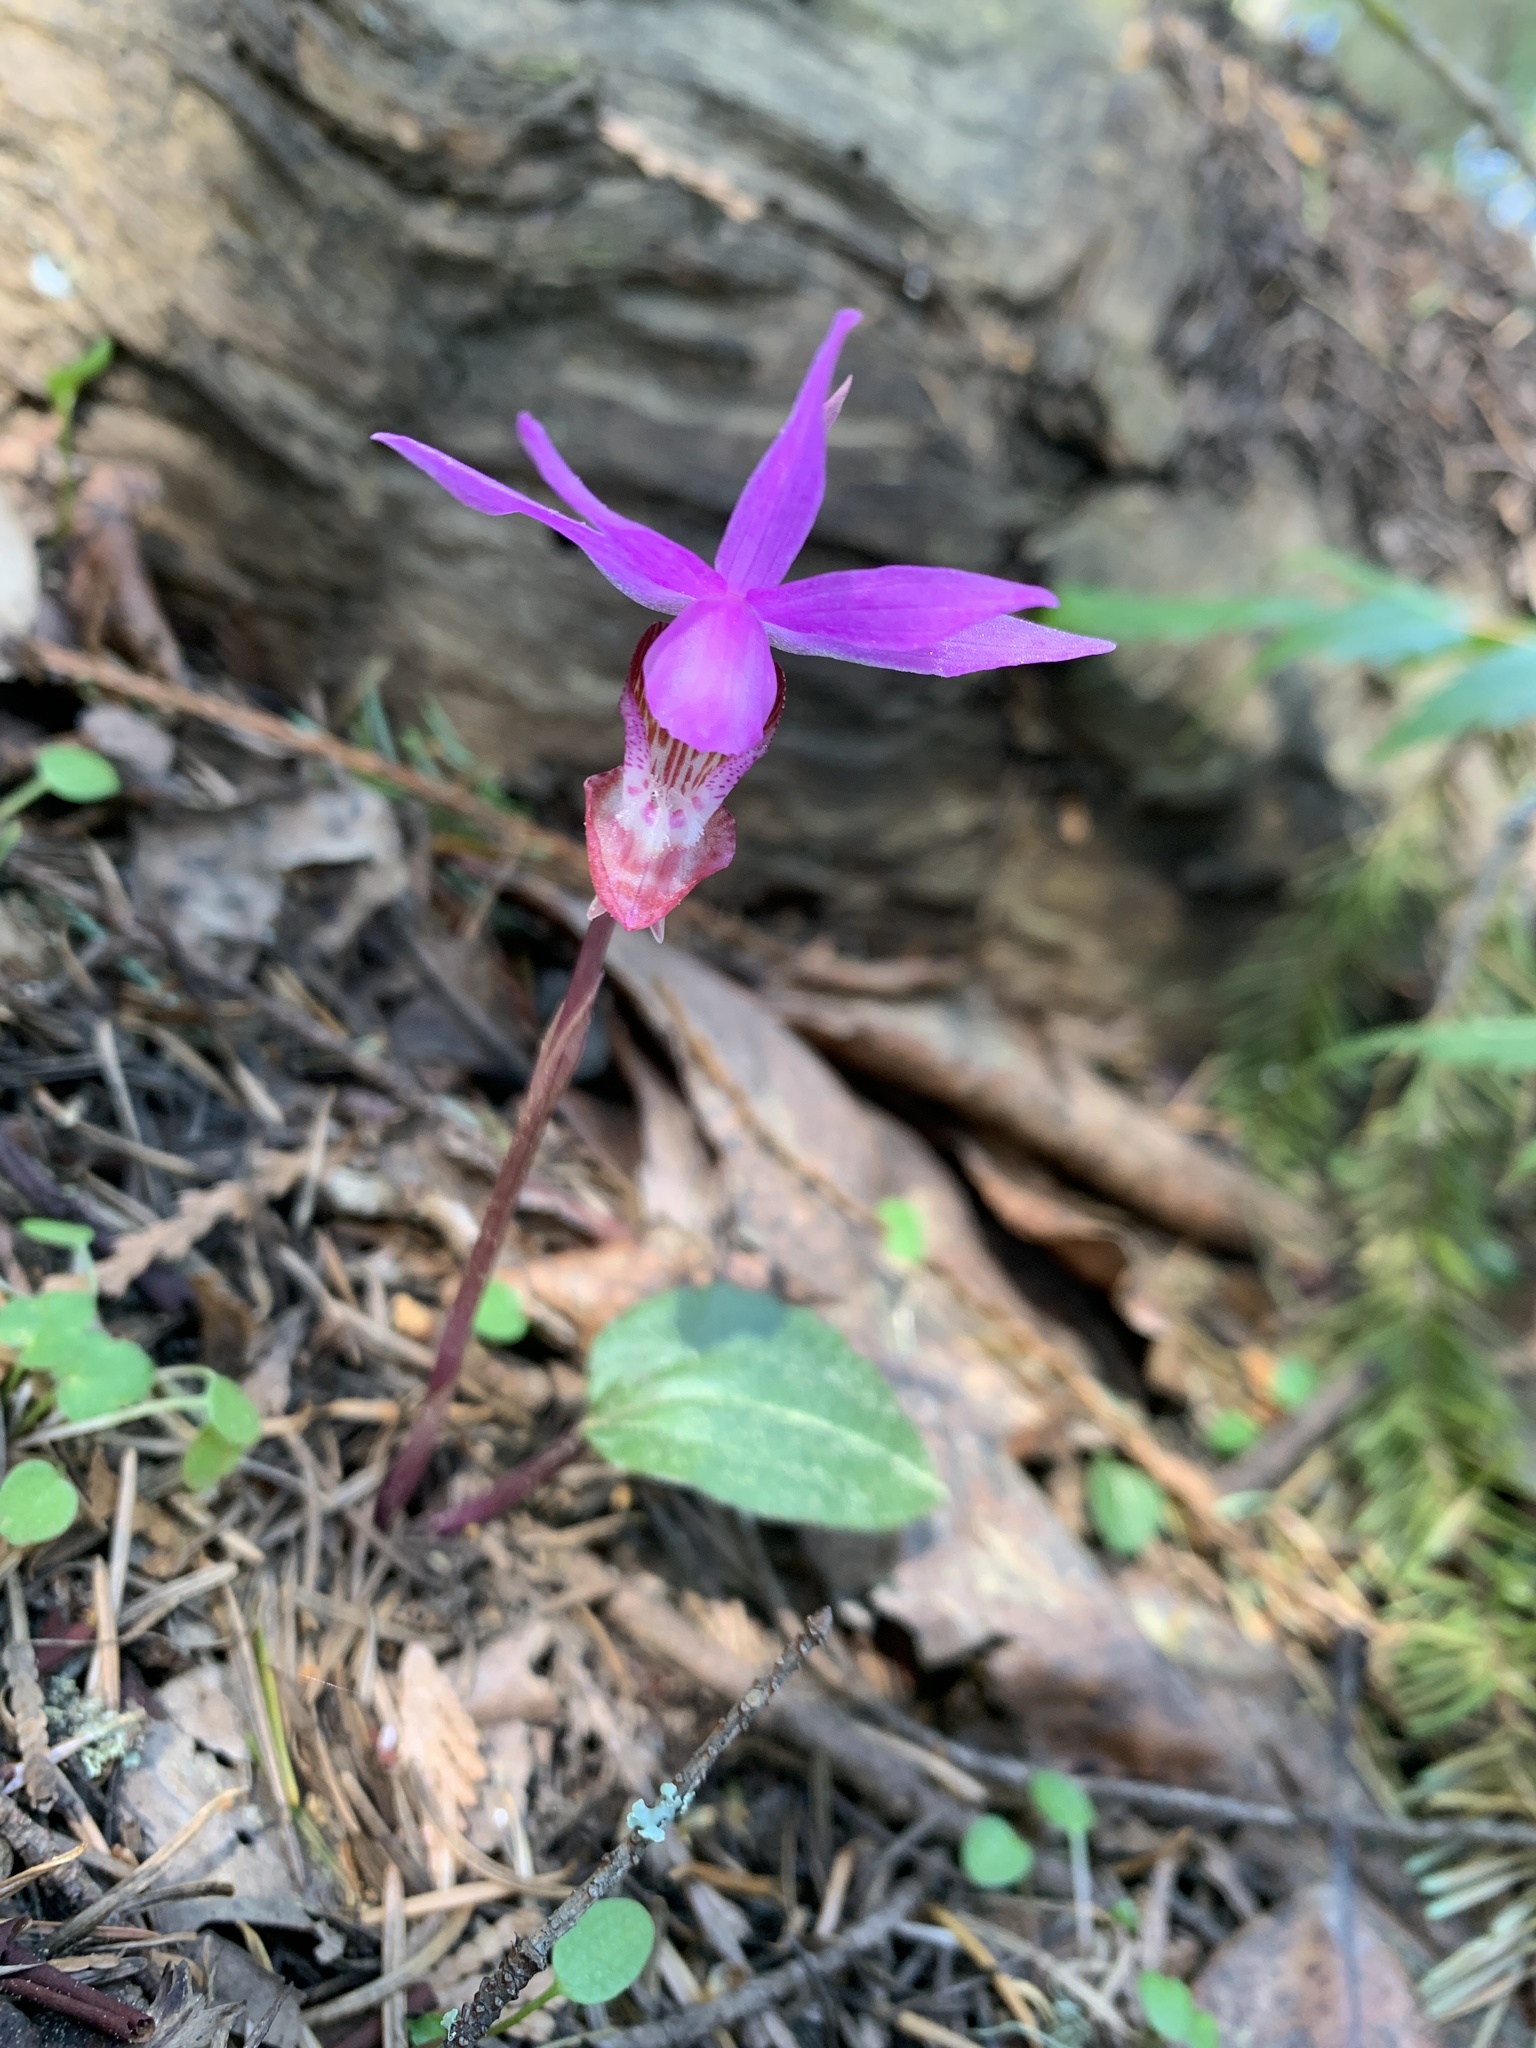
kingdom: Plantae
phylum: Tracheophyta
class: Liliopsida
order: Asparagales
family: Orchidaceae
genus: Calypso
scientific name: Calypso bulbosa
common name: Calypso
